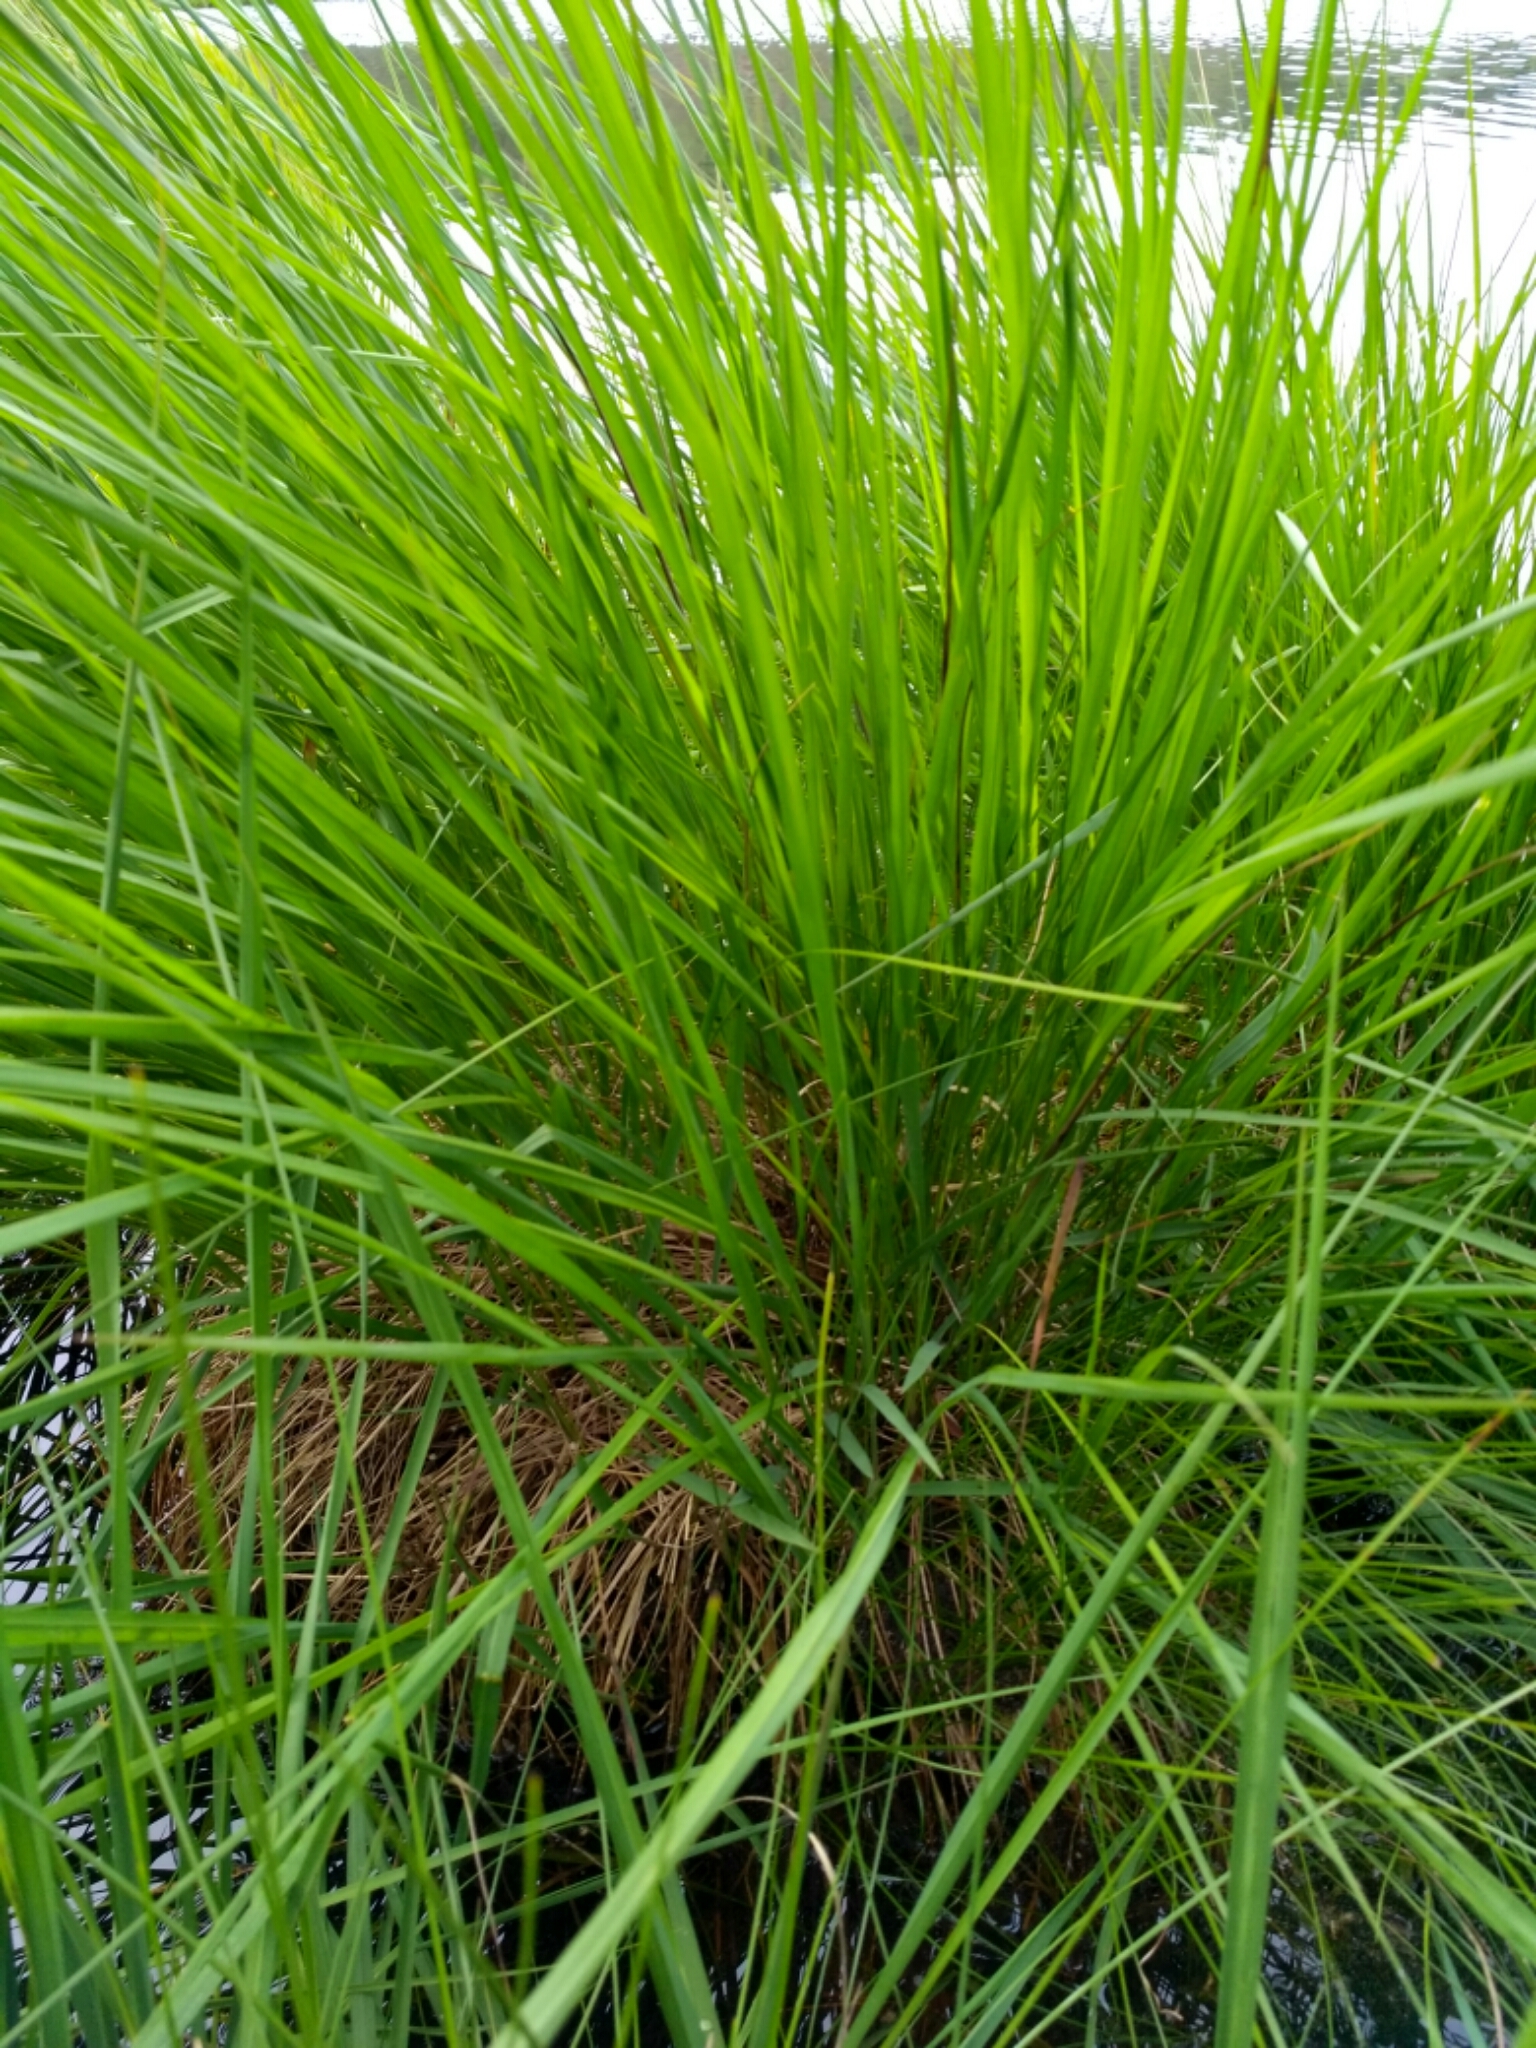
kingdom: Plantae
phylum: Tracheophyta
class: Liliopsida
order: Poales
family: Poaceae
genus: Molinia
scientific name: Molinia caerulea
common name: Purple moor-grass
